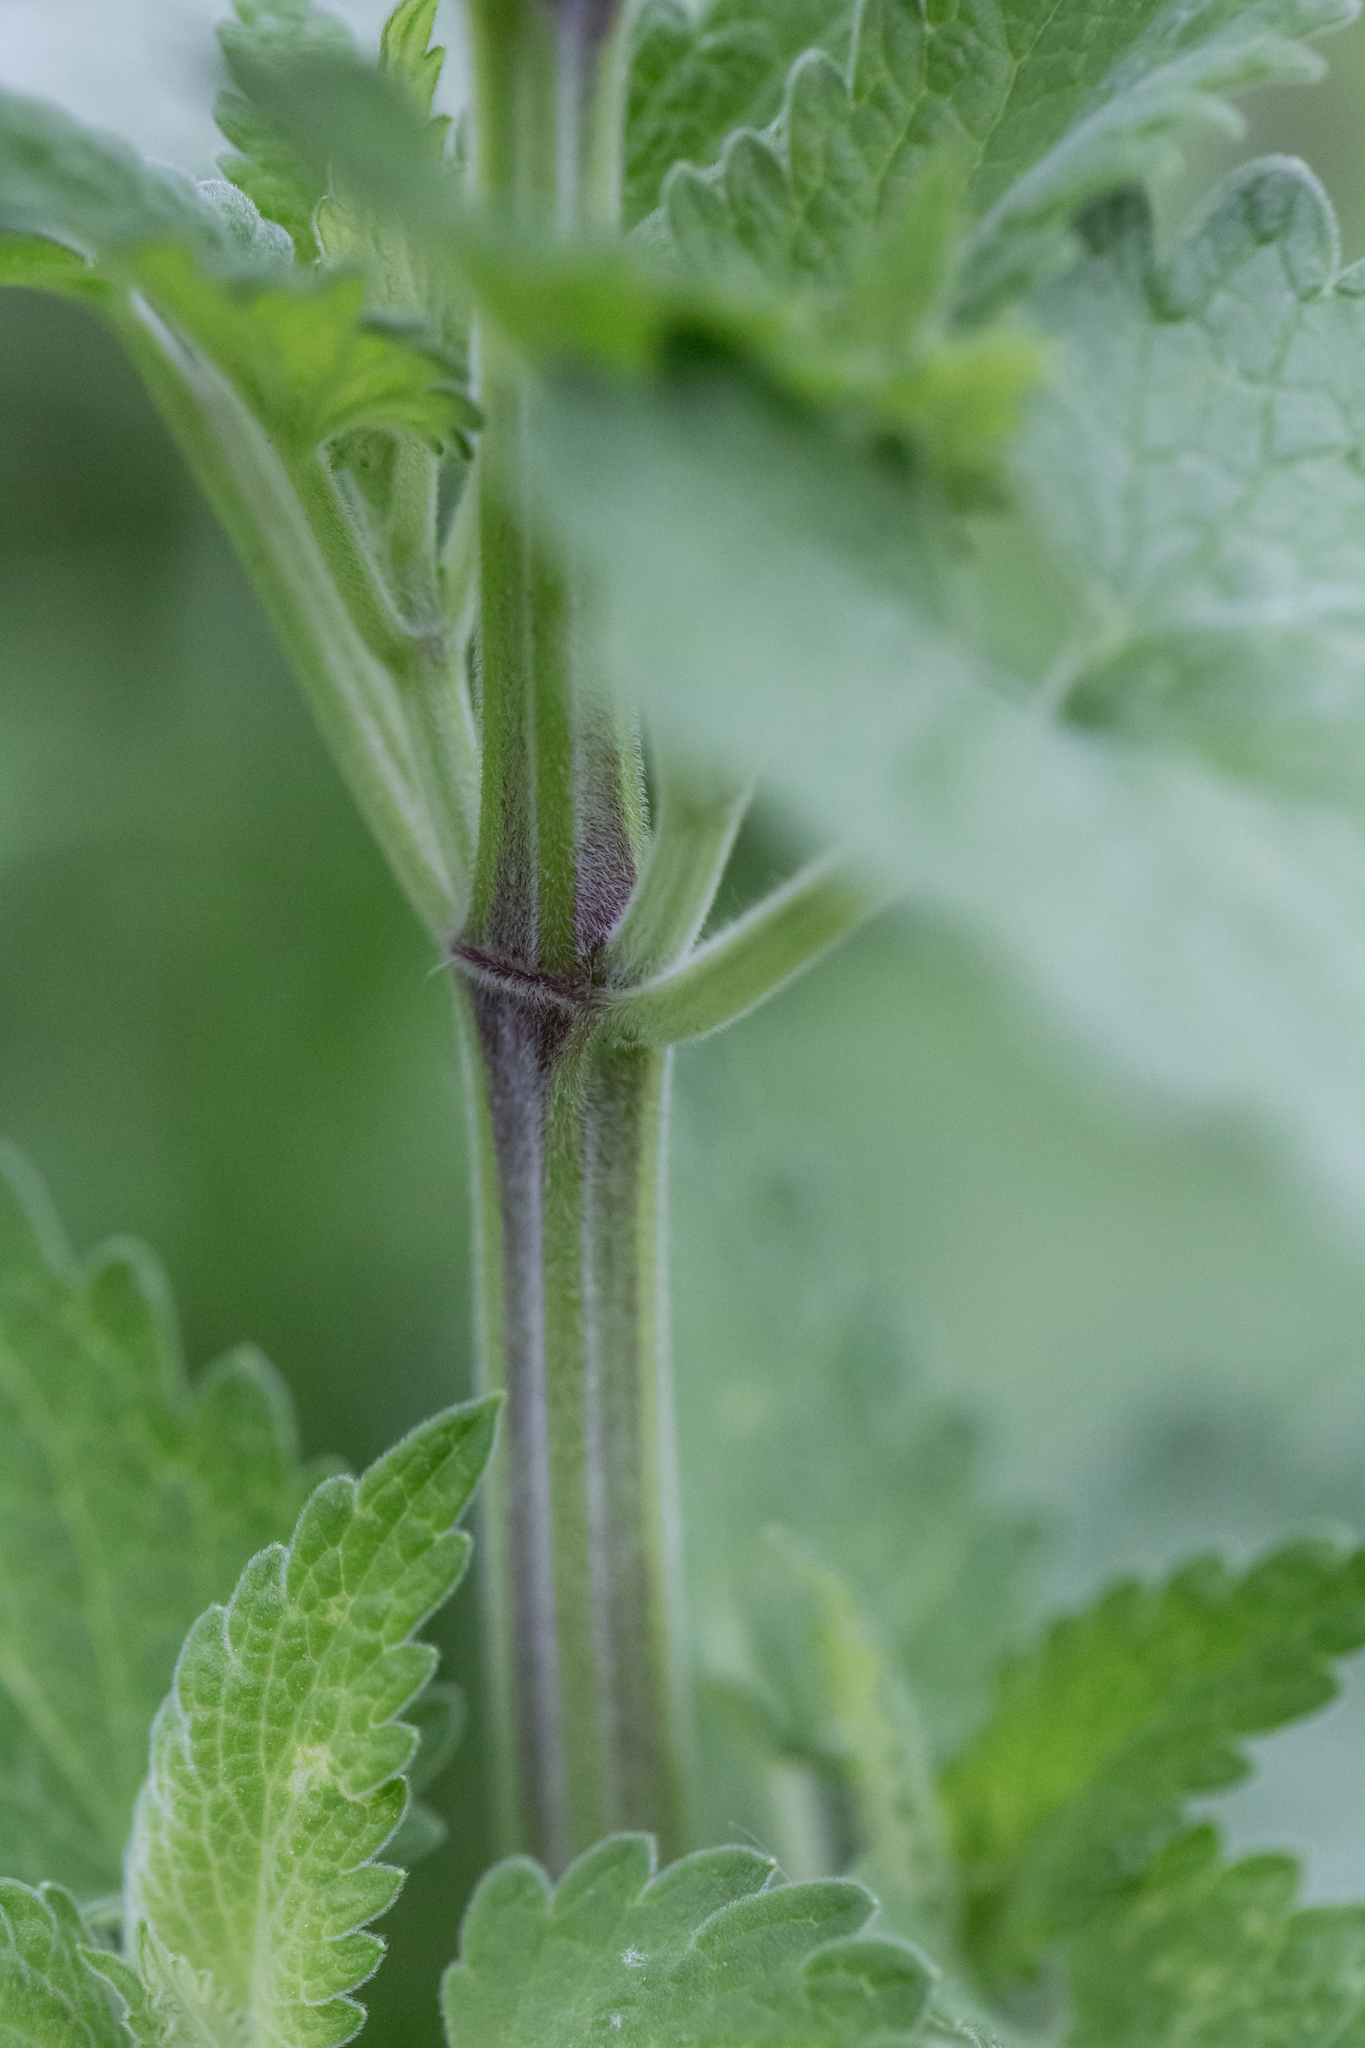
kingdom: Plantae
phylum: Tracheophyta
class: Magnoliopsida
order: Lamiales
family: Lamiaceae
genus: Nepeta
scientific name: Nepeta cataria
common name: Catnip
